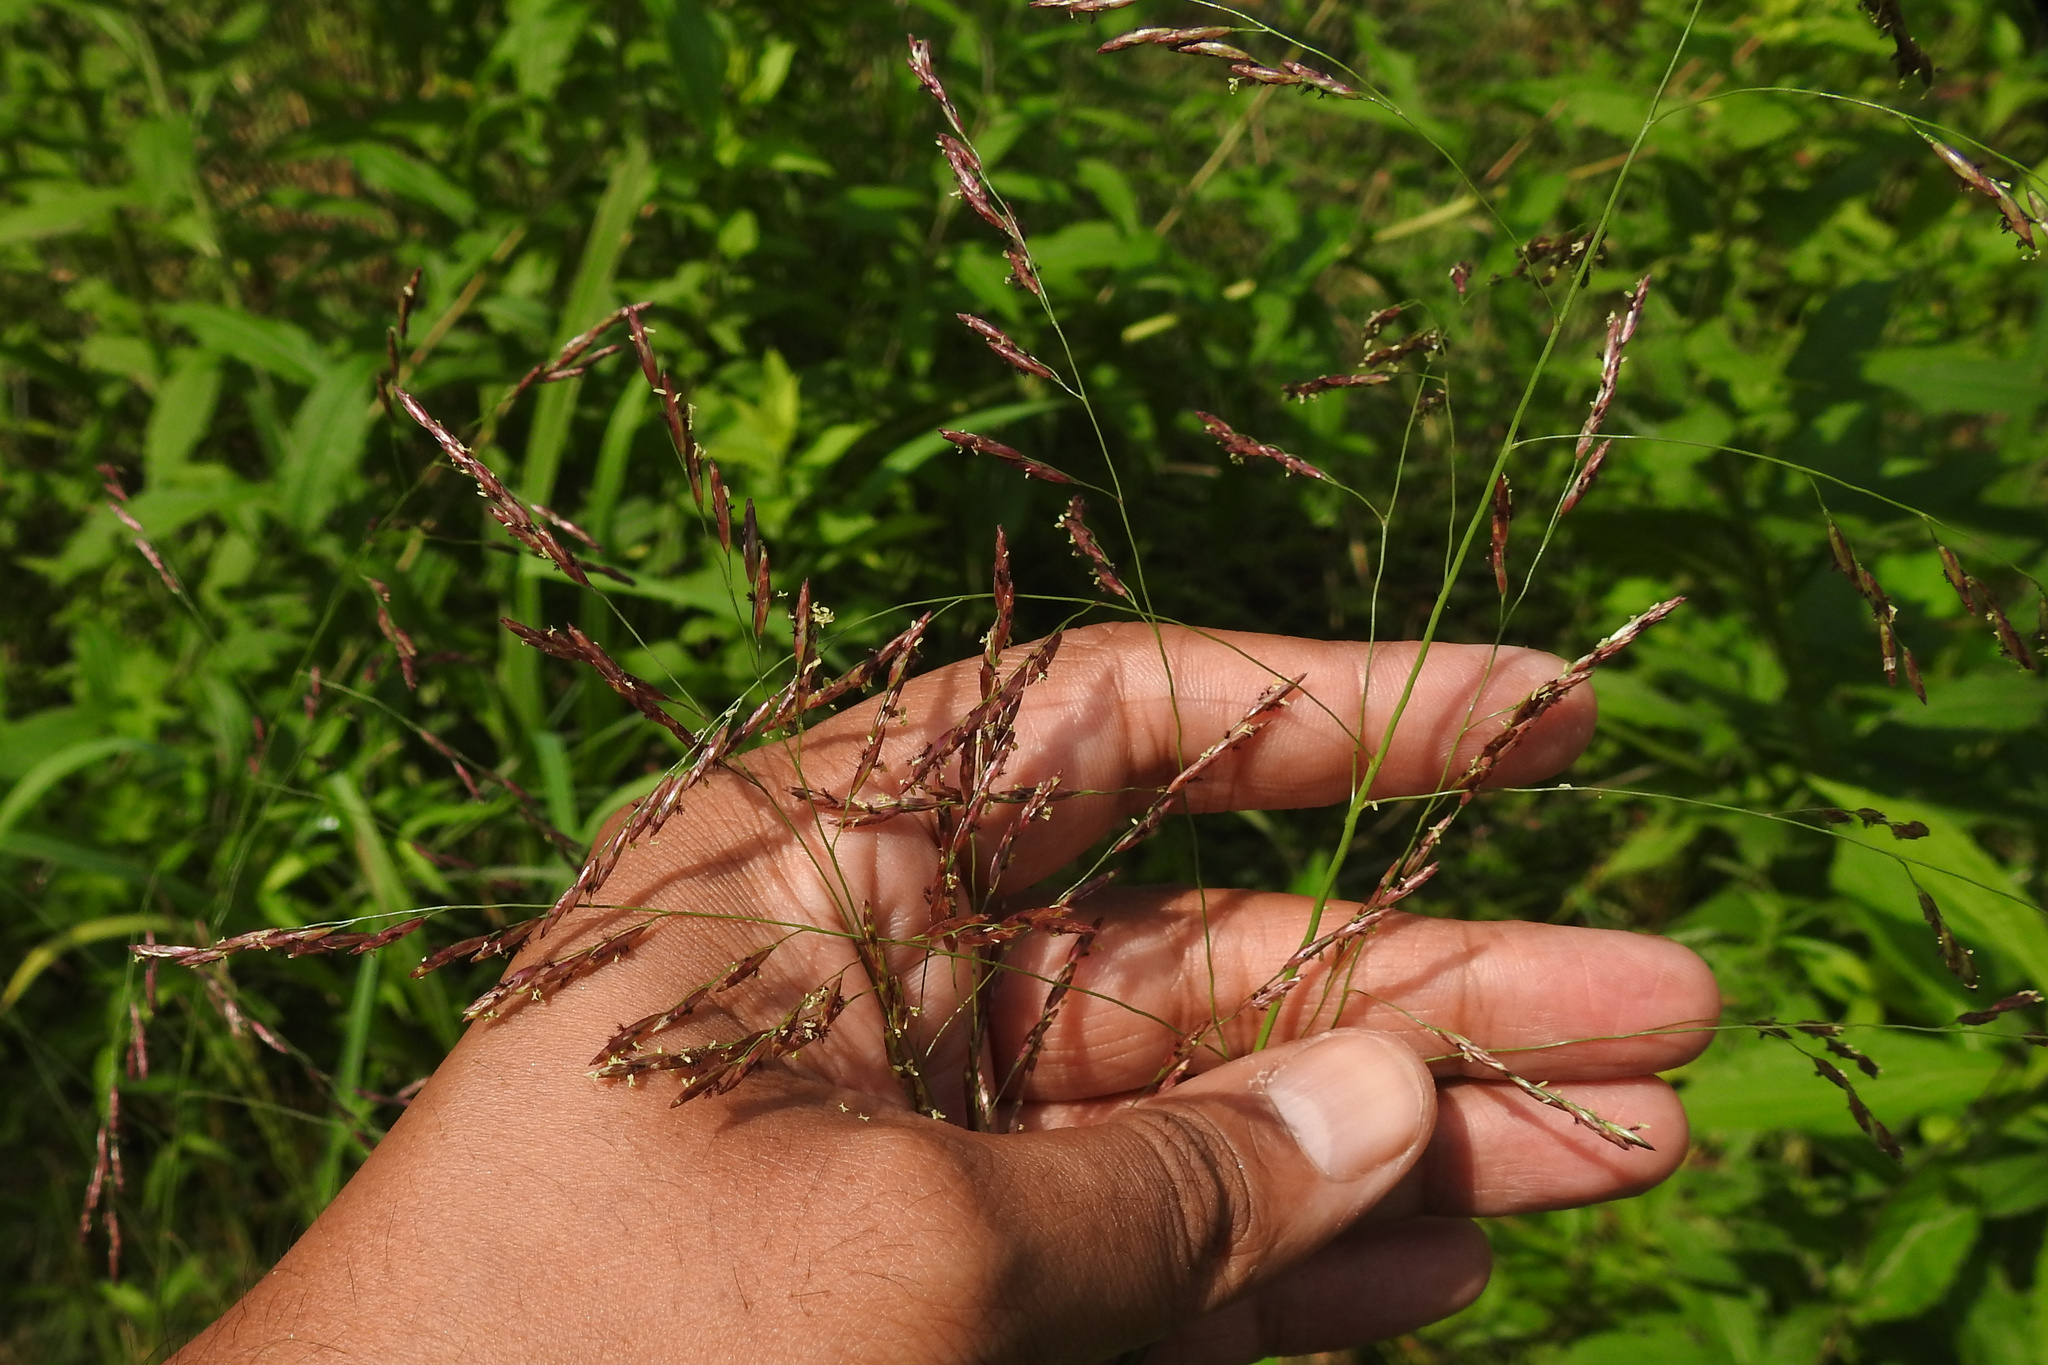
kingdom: Plantae
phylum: Tracheophyta
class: Liliopsida
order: Poales
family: Poaceae
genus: Tridens
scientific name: Tridens flavus
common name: Purpletop
